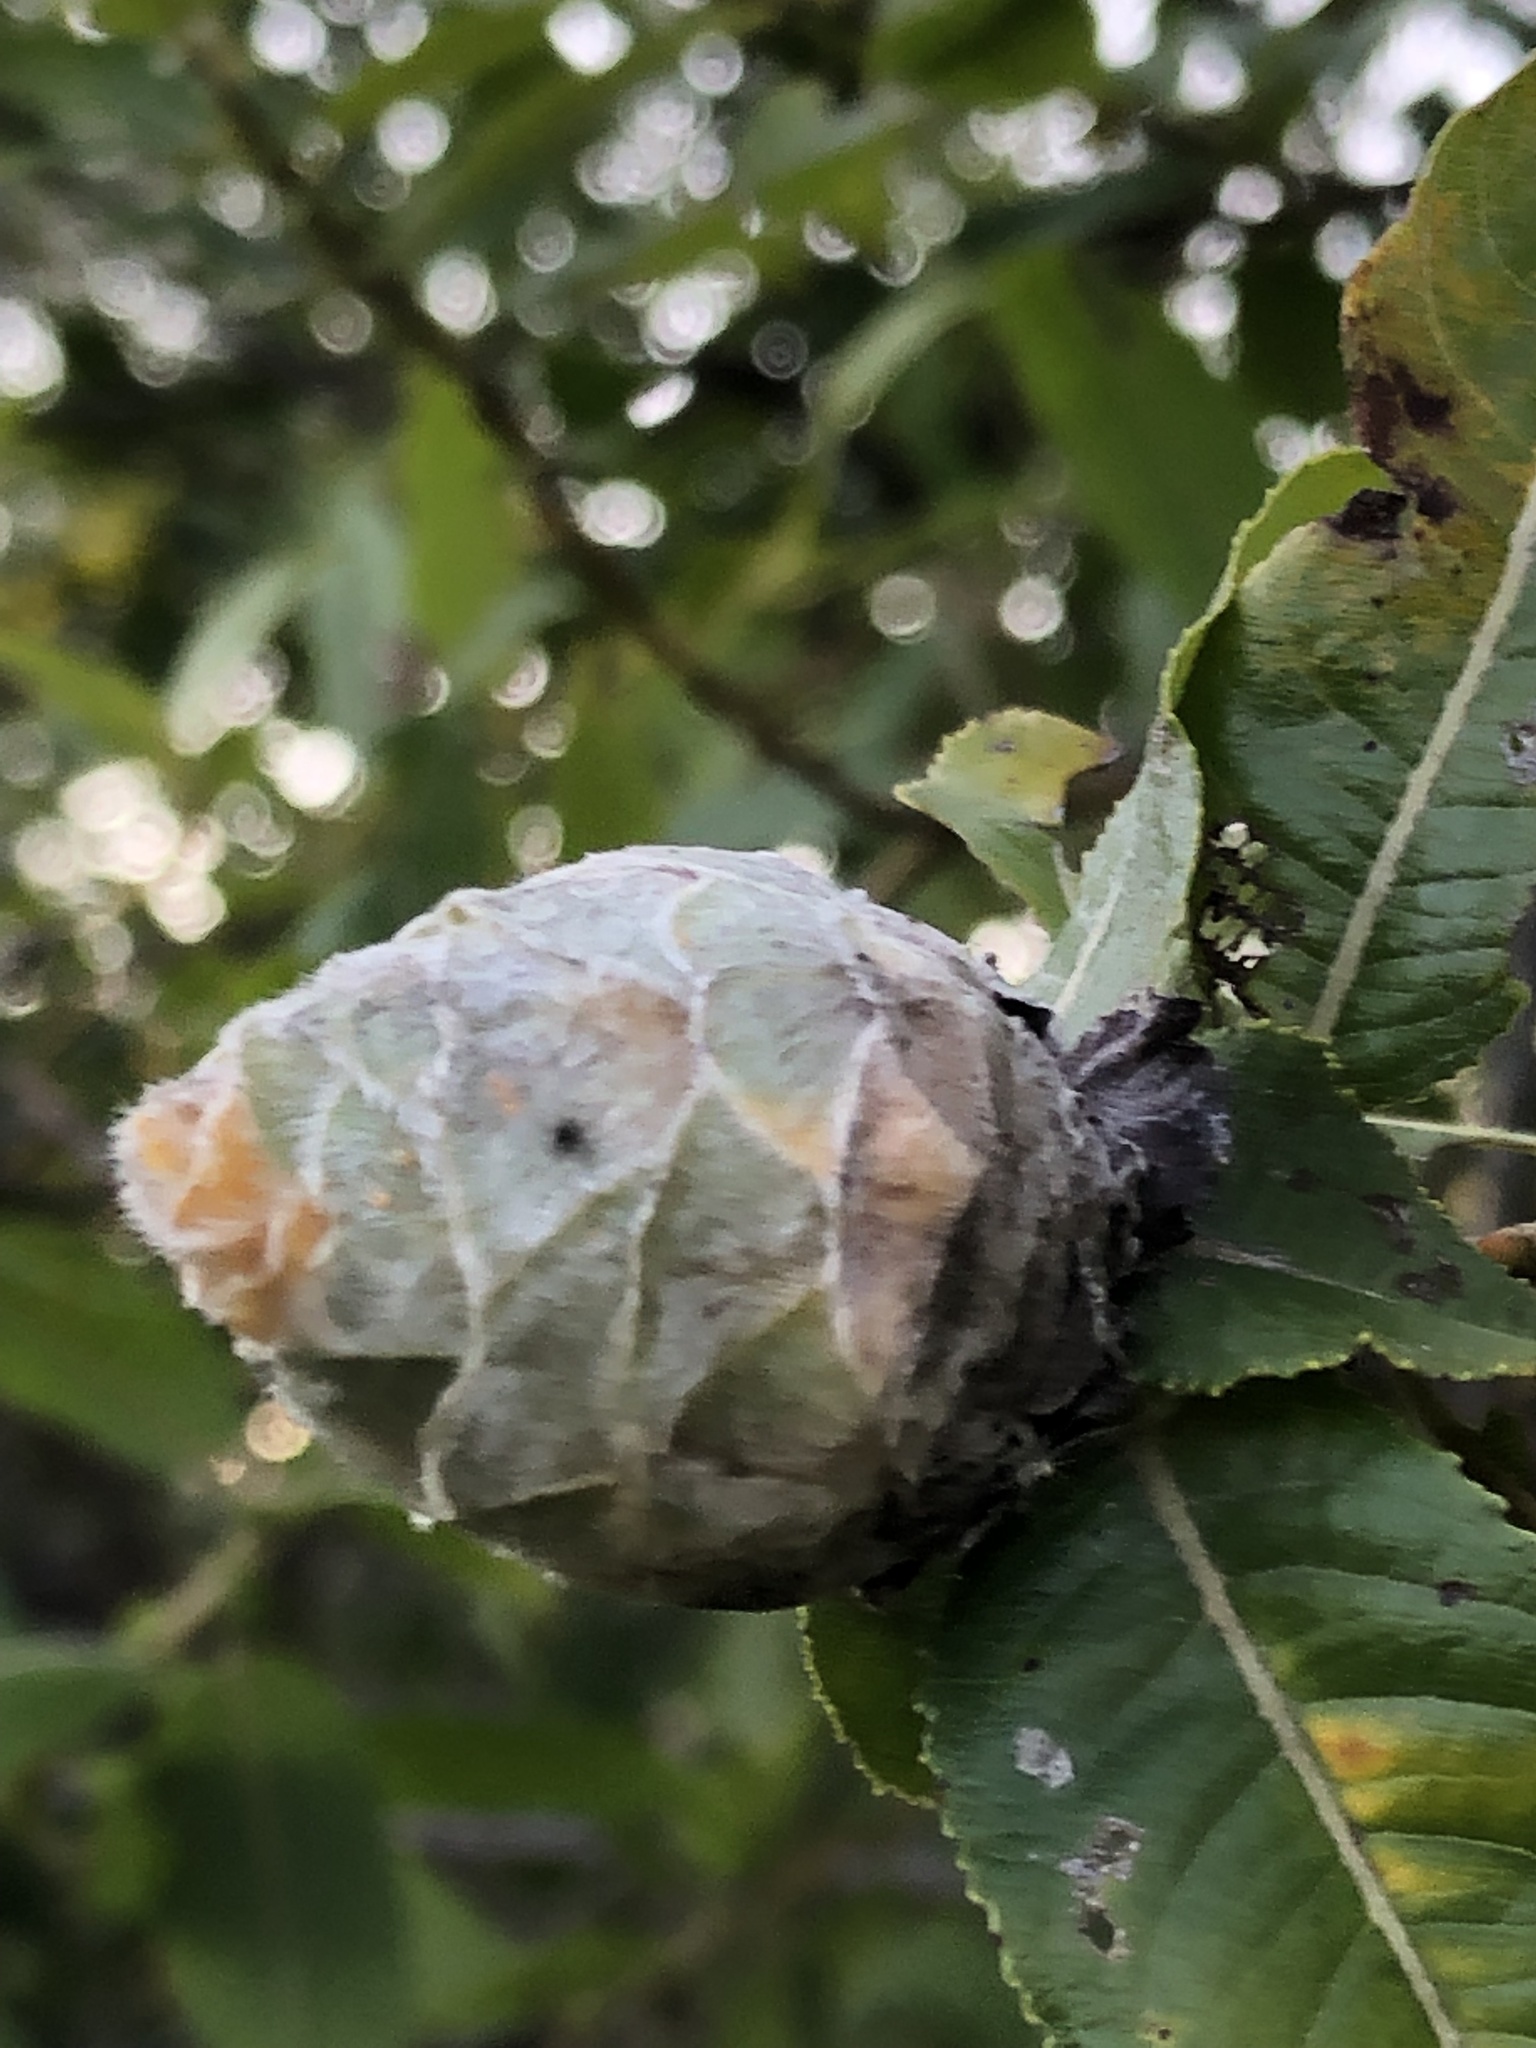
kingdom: Animalia
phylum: Arthropoda
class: Insecta
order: Diptera
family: Cecidomyiidae
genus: Rabdophaga
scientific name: Rabdophaga strobiloides
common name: Willow pinecone gall midge
